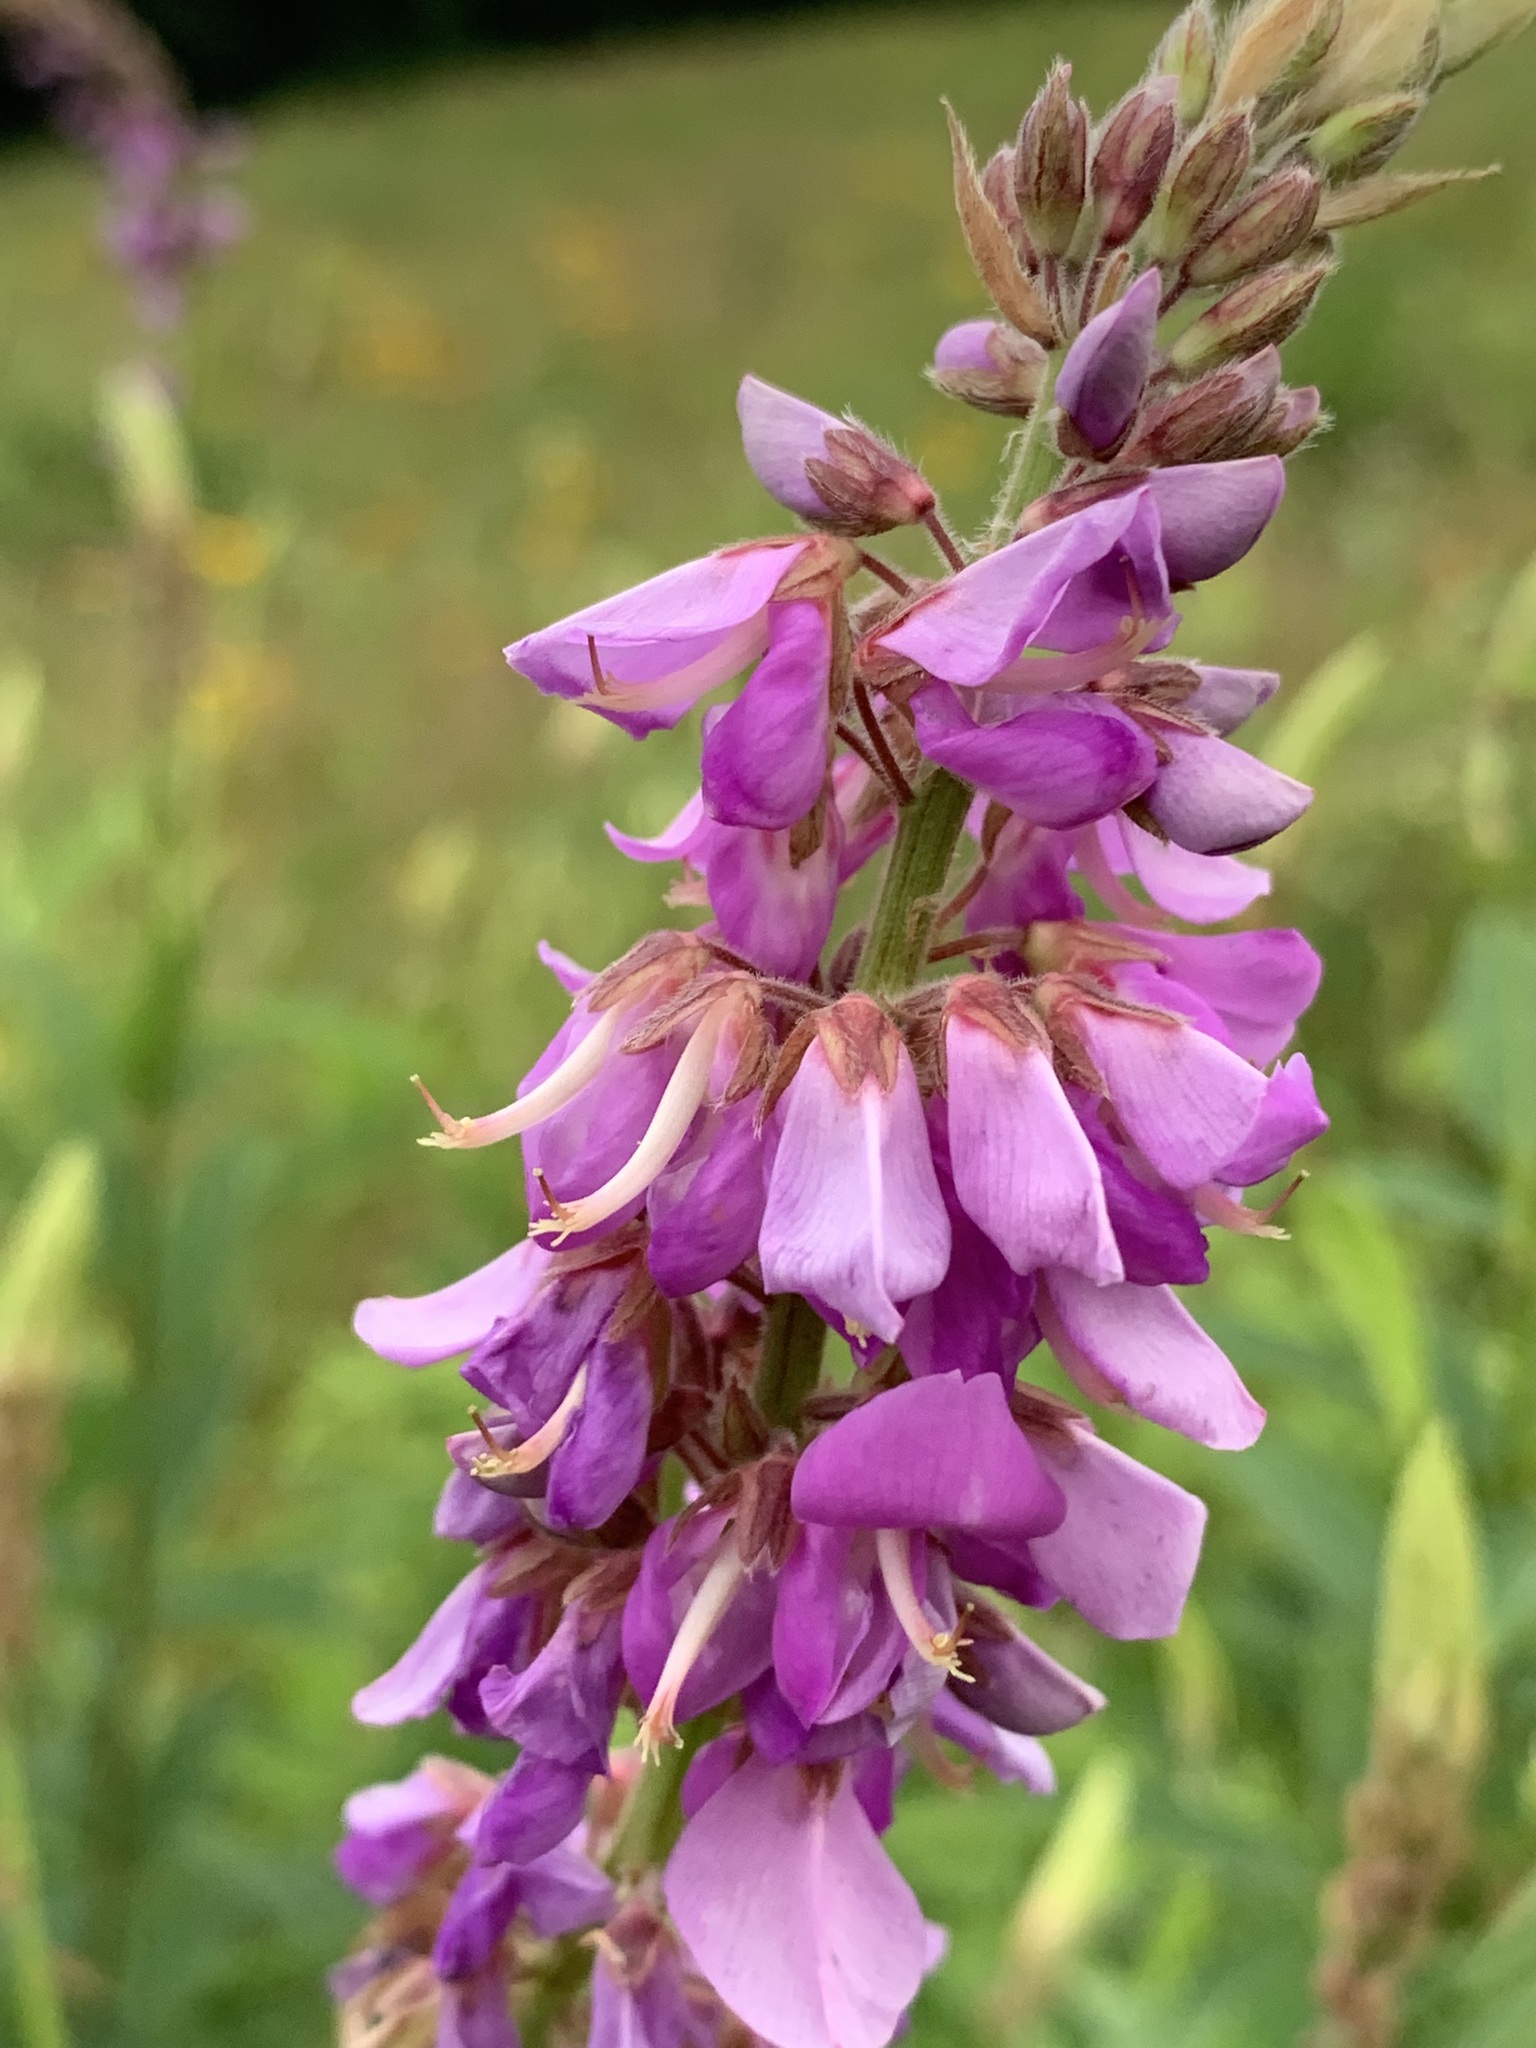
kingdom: Plantae
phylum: Tracheophyta
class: Magnoliopsida
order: Fabales
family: Fabaceae
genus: Desmodium
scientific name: Desmodium canadense
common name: Canada tick-trefoil
